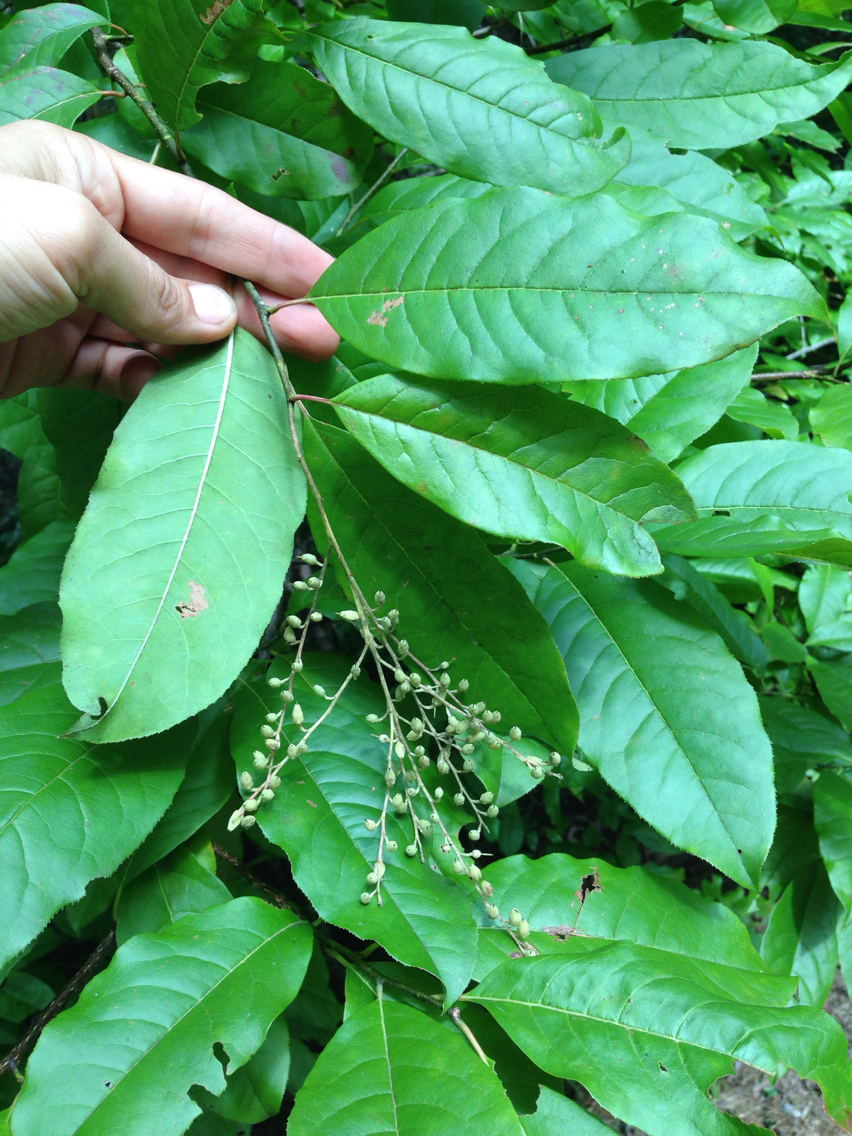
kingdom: Plantae
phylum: Tracheophyta
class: Magnoliopsida
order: Ericales
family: Ericaceae
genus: Oxydendrum
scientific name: Oxydendrum arboreum
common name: Sourwood
